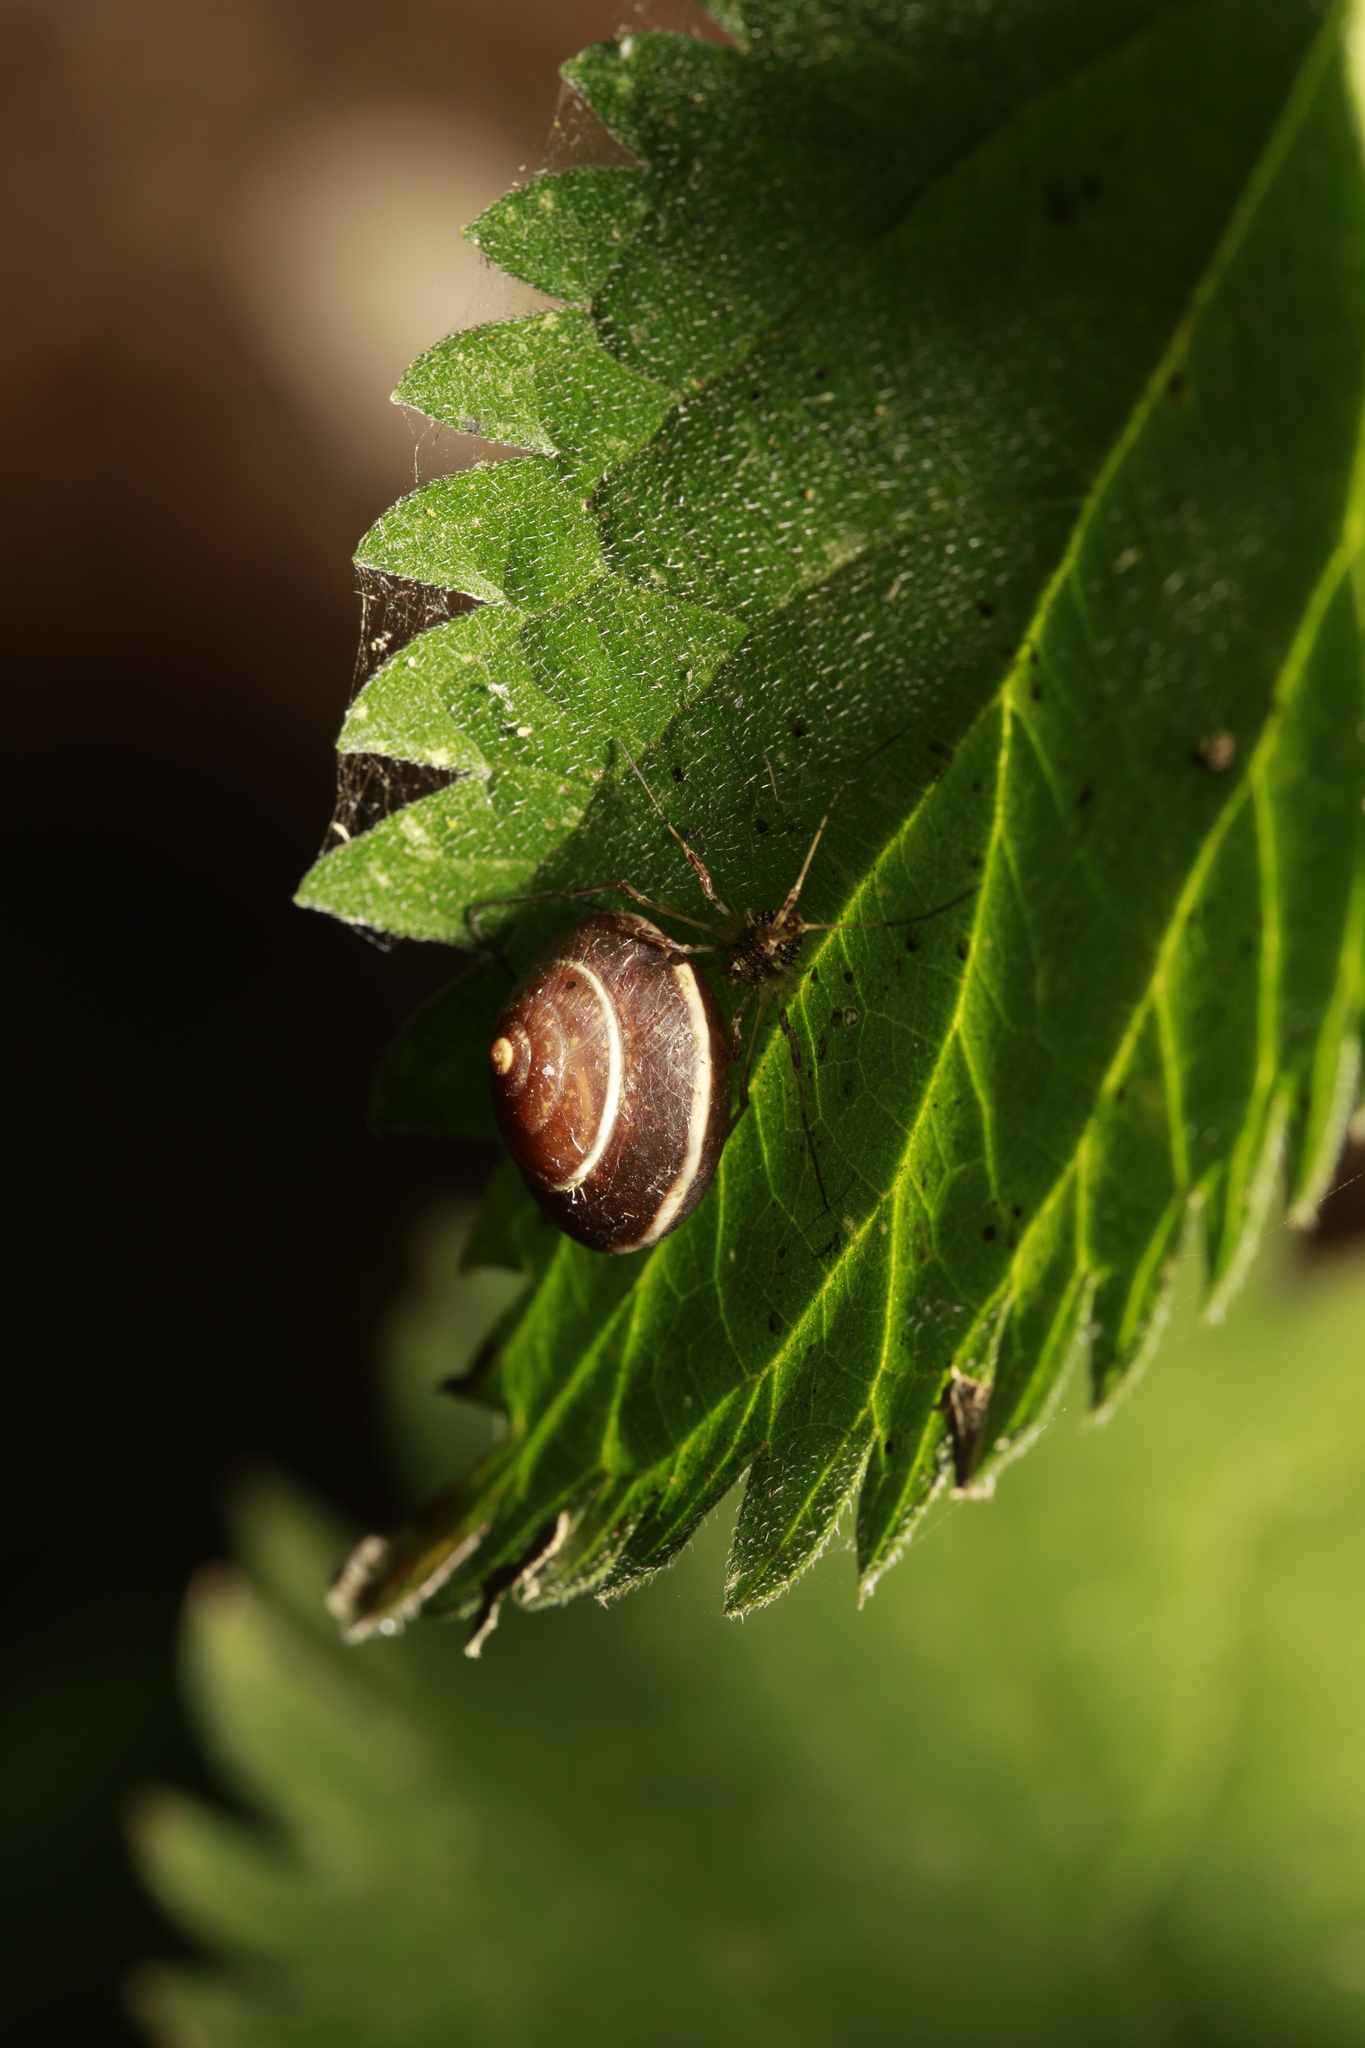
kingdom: Animalia
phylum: Mollusca
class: Gastropoda
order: Stylommatophora
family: Hygromiidae
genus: Hygromia
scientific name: Hygromia cinctella
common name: Girdled snail
